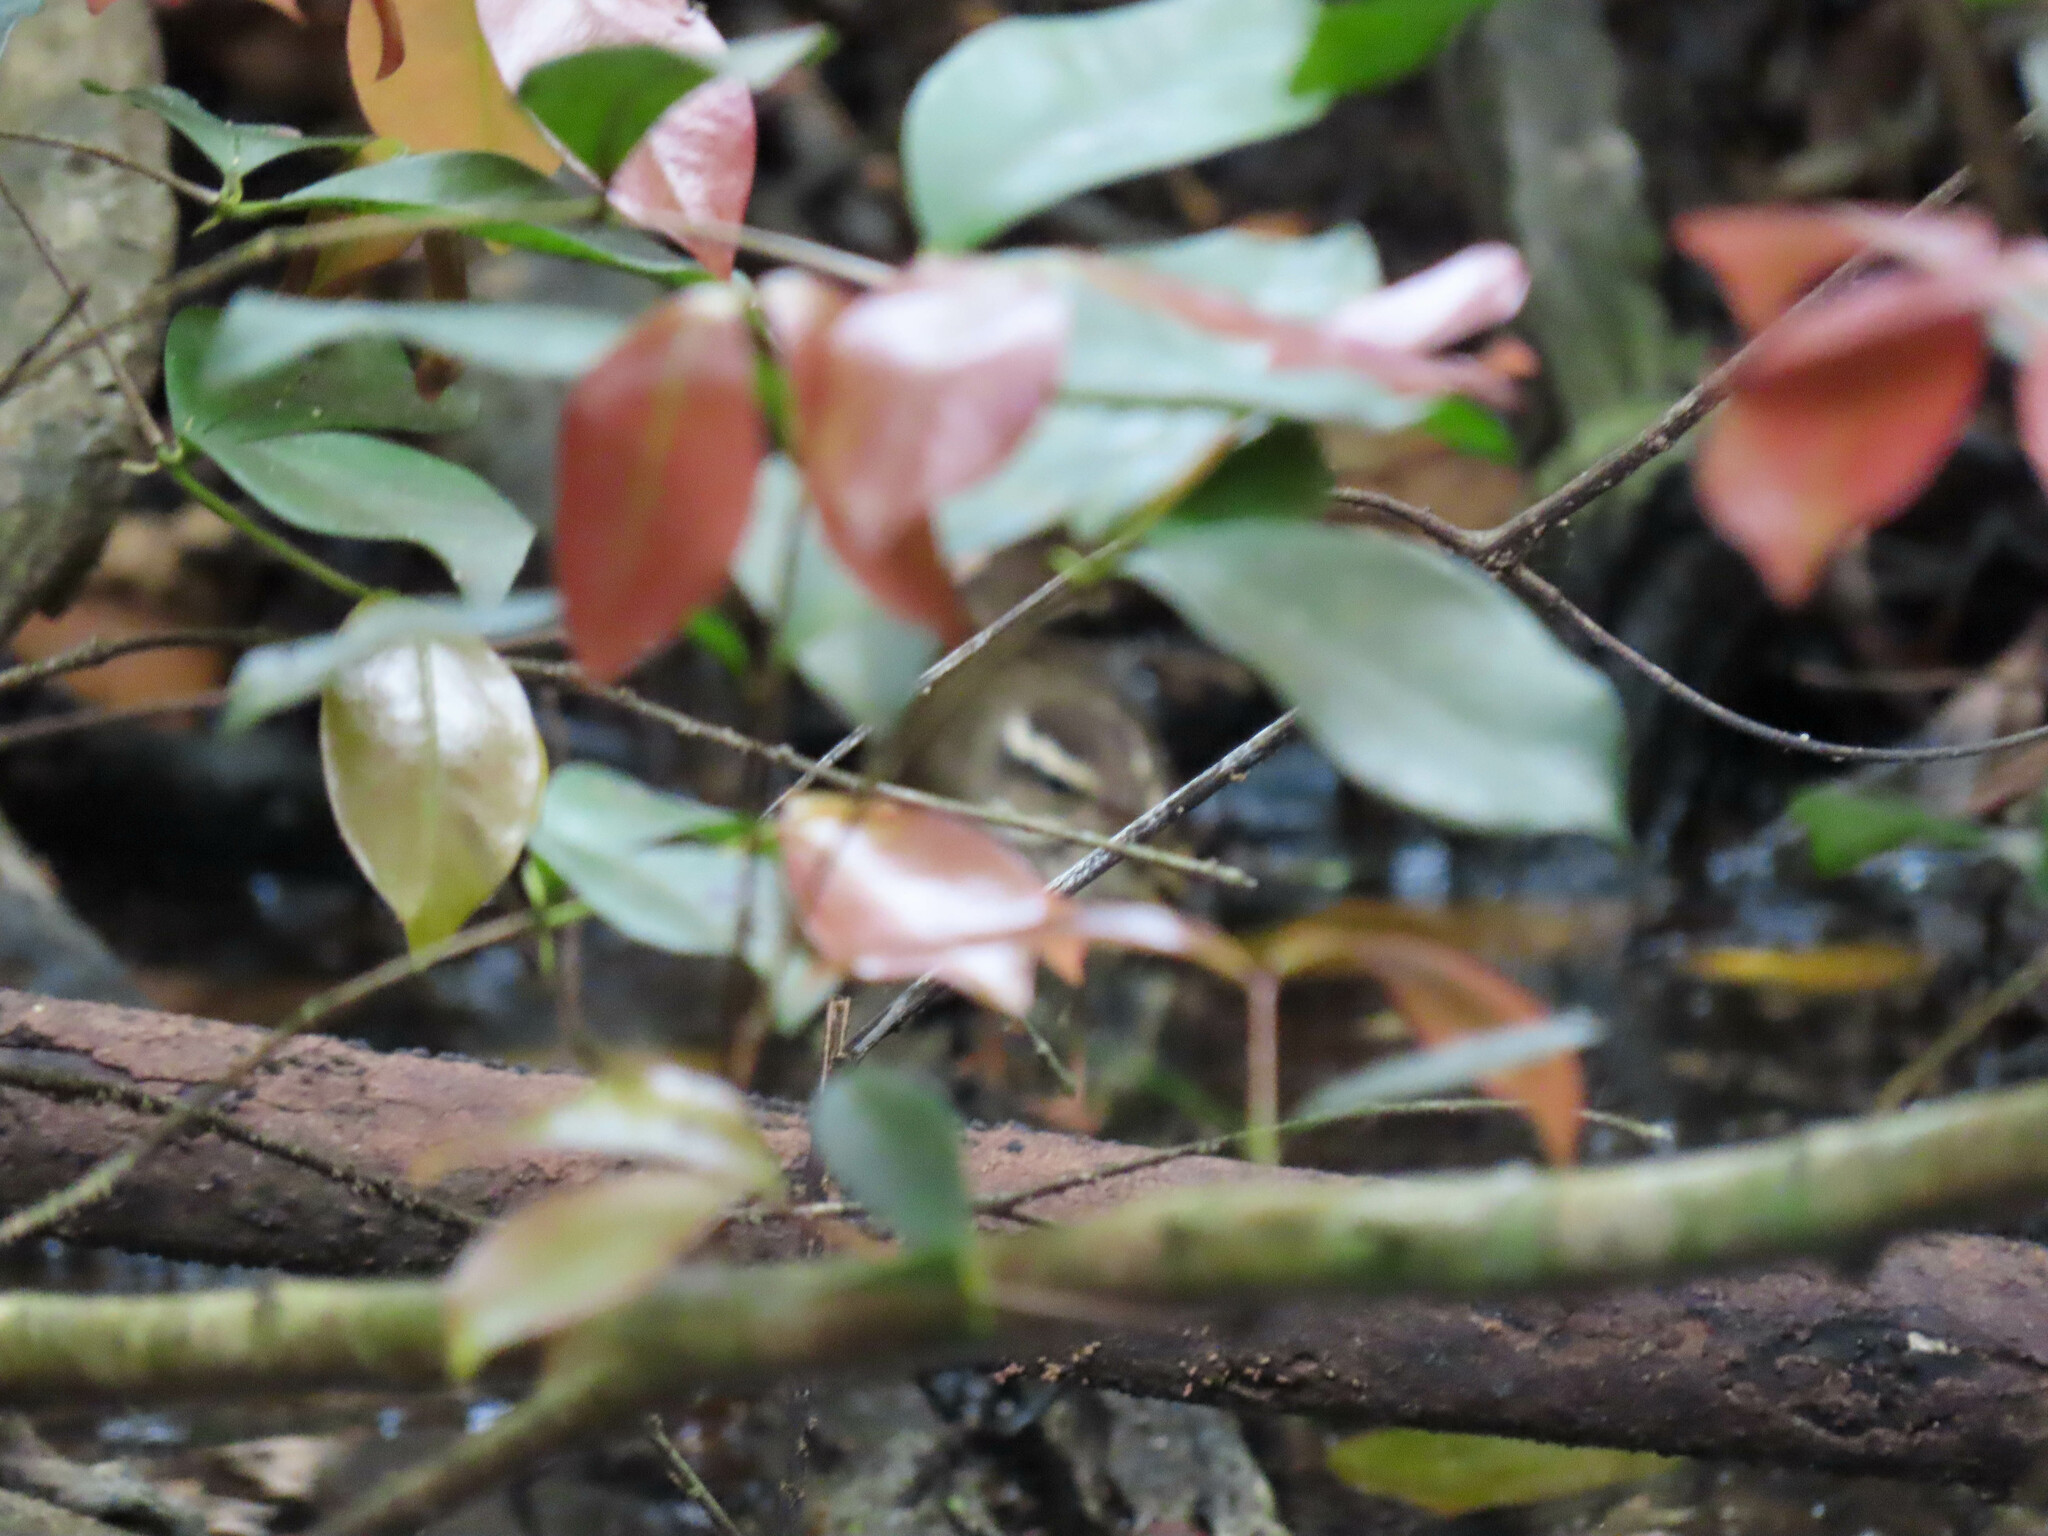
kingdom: Animalia
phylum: Chordata
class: Aves
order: Passeriformes
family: Parulidae
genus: Parkesia
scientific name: Parkesia motacilla
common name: Louisiana waterthrush
